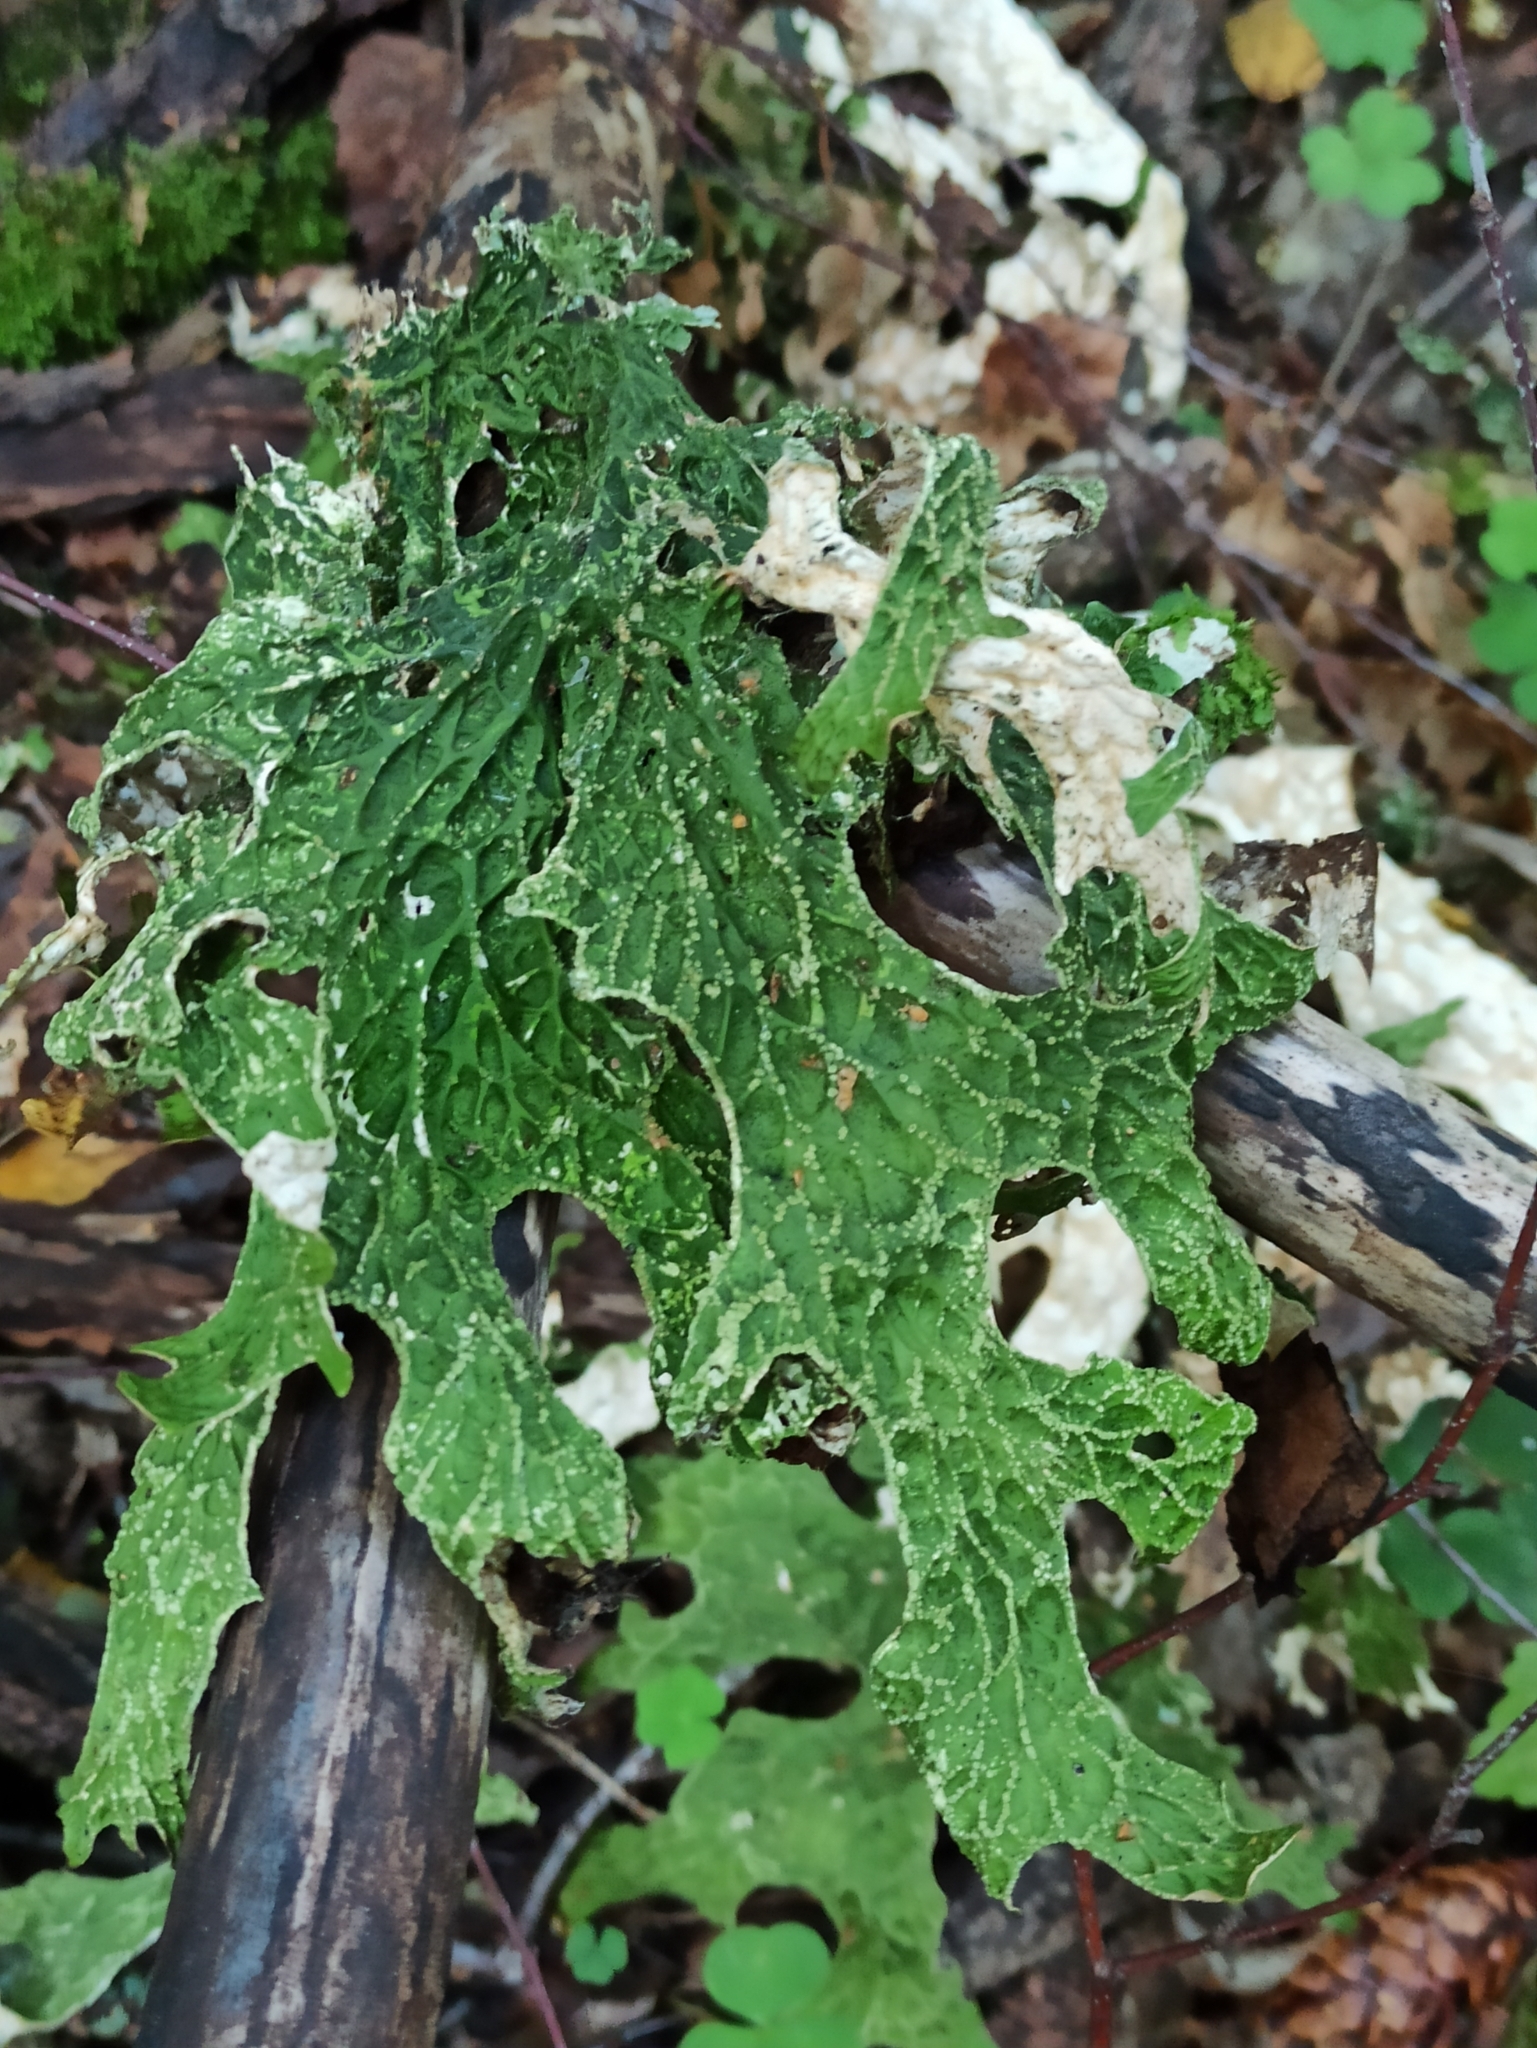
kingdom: Fungi
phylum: Ascomycota
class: Lecanoromycetes
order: Peltigerales
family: Lobariaceae
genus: Lobaria
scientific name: Lobaria pulmonaria
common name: Lungwort
